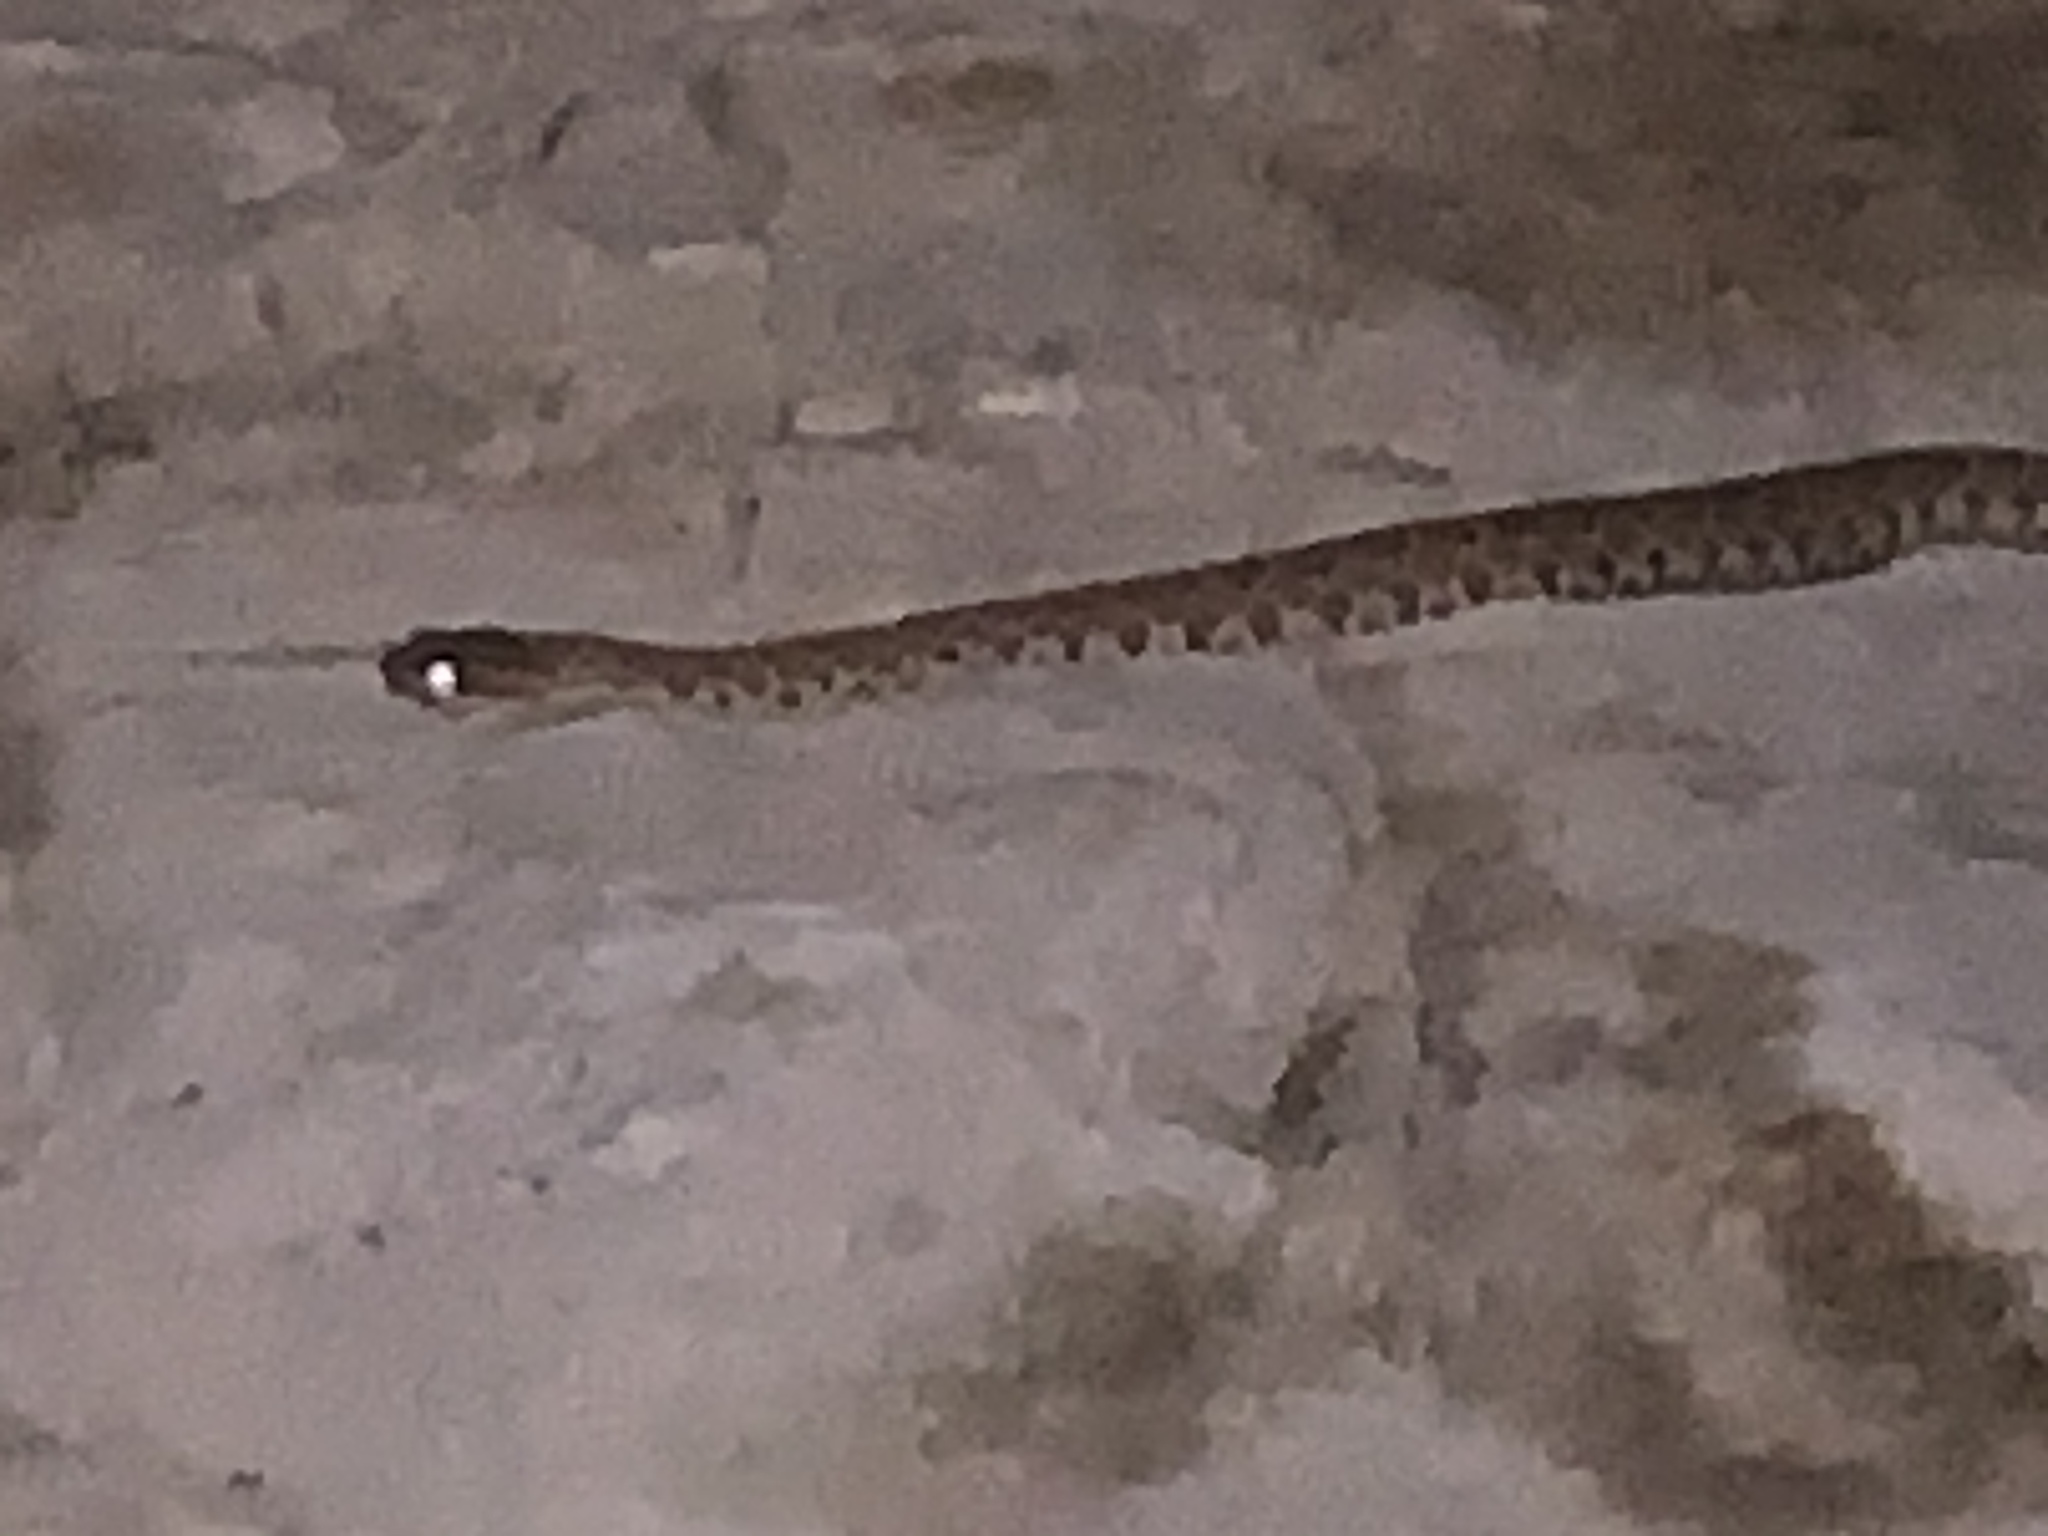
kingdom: Animalia
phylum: Chordata
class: Squamata
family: Viperidae
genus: Crotalus
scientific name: Crotalus oreganus
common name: Abyssus
